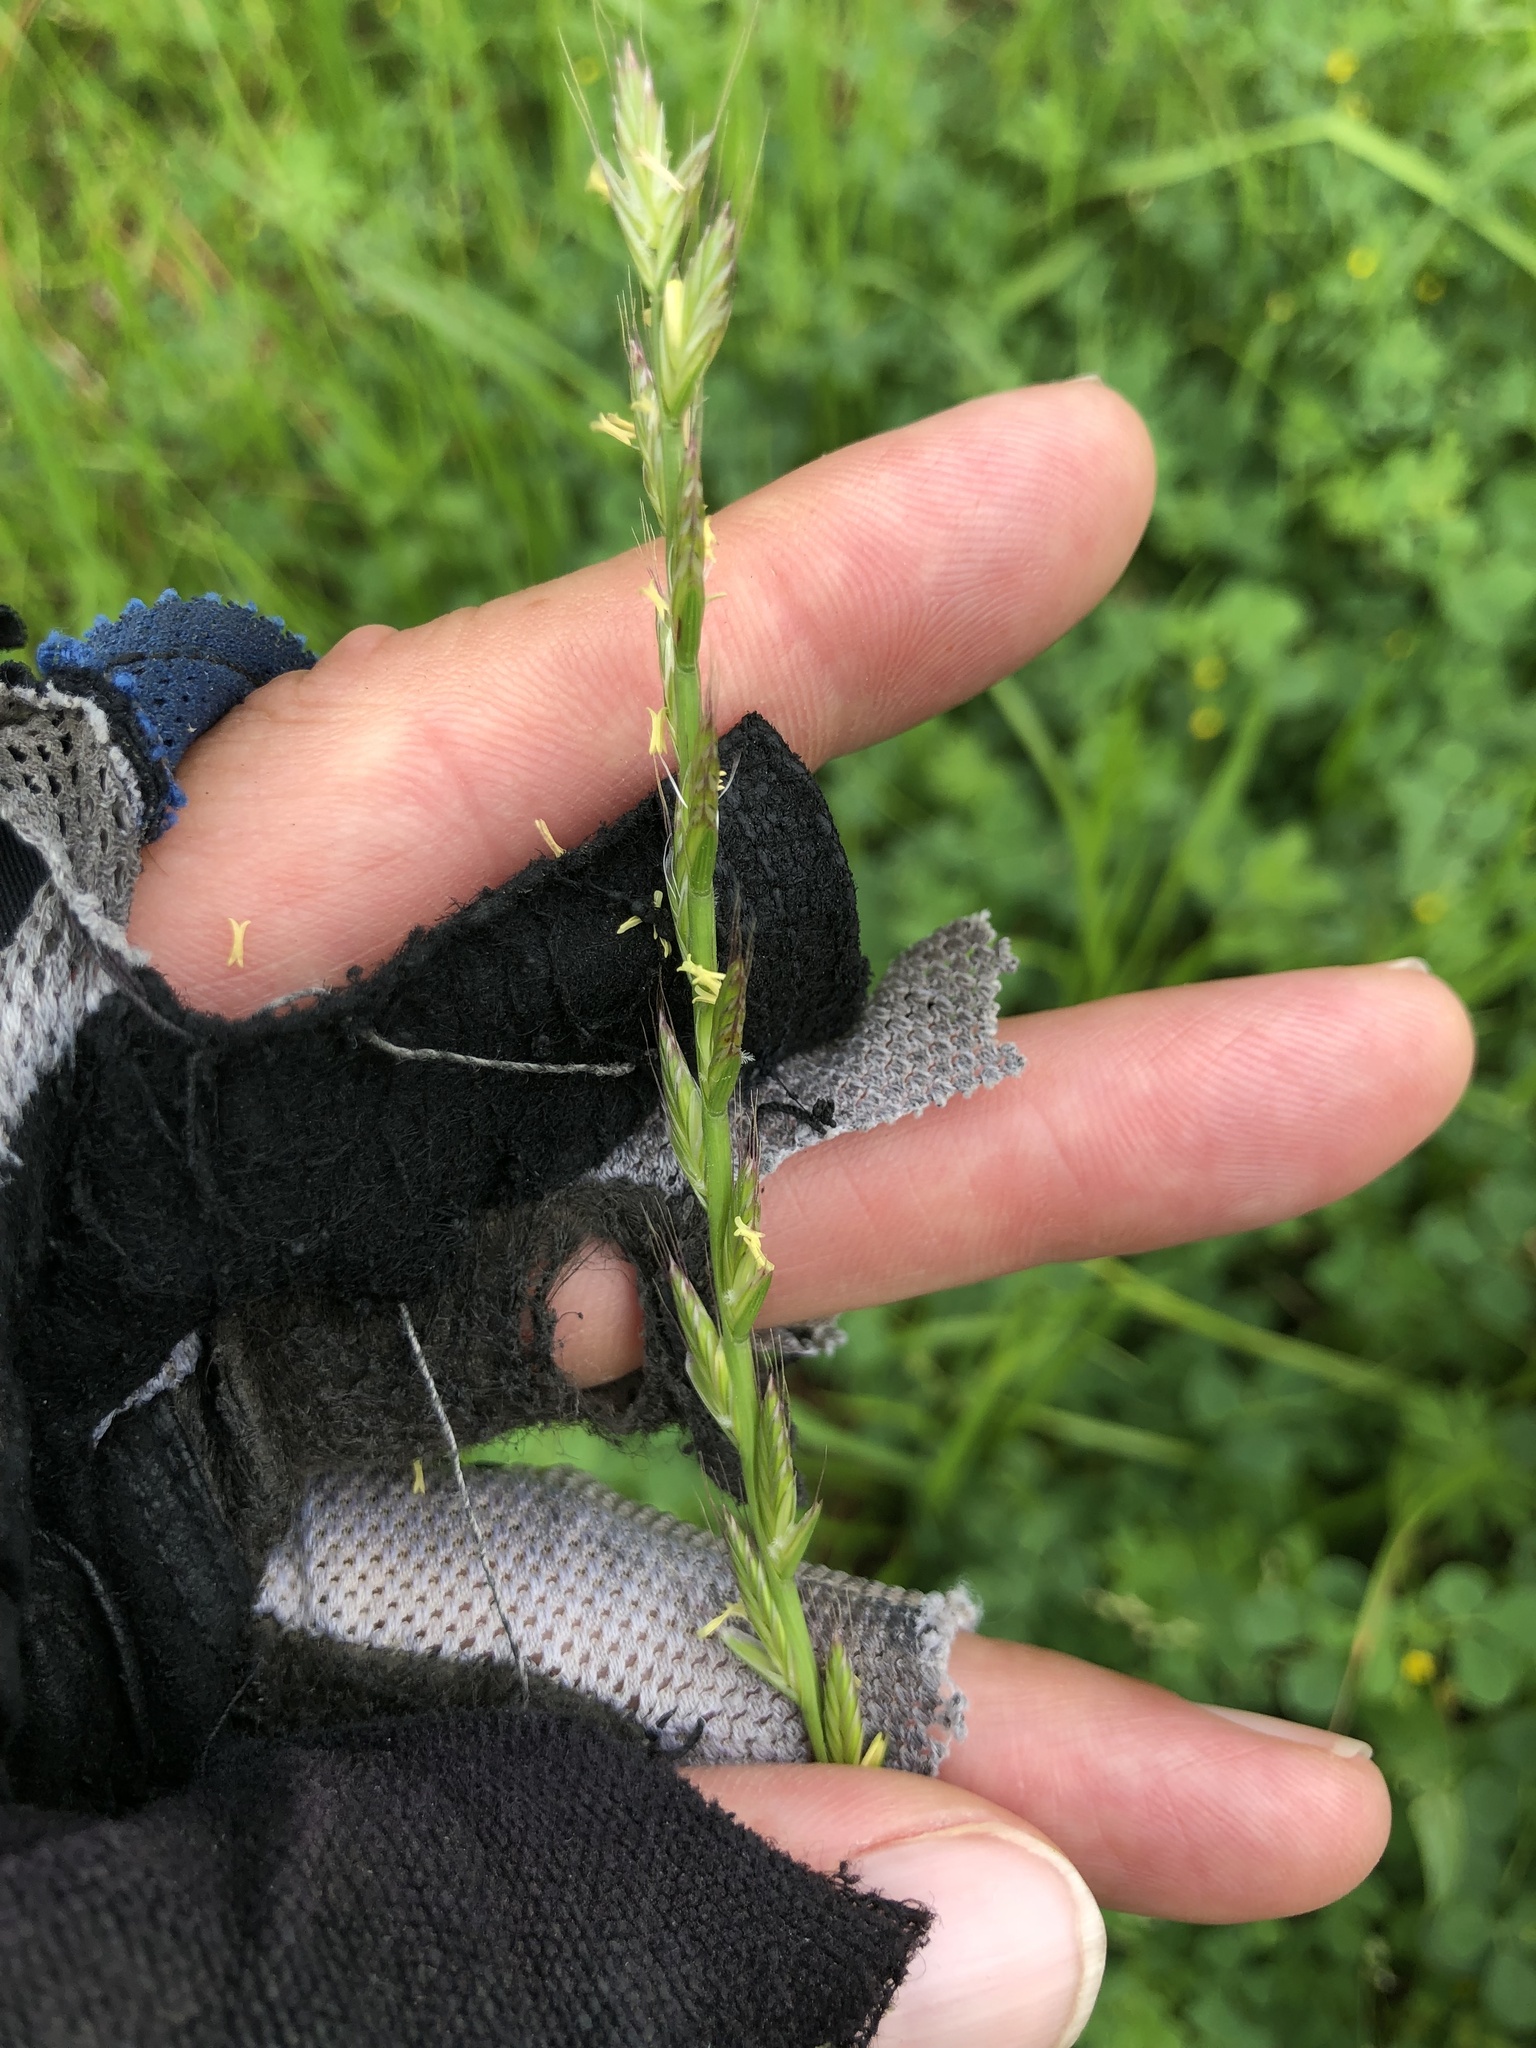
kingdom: Plantae
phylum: Tracheophyta
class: Liliopsida
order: Poales
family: Poaceae
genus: Lolium
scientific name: Lolium perenne
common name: Perennial ryegrass
